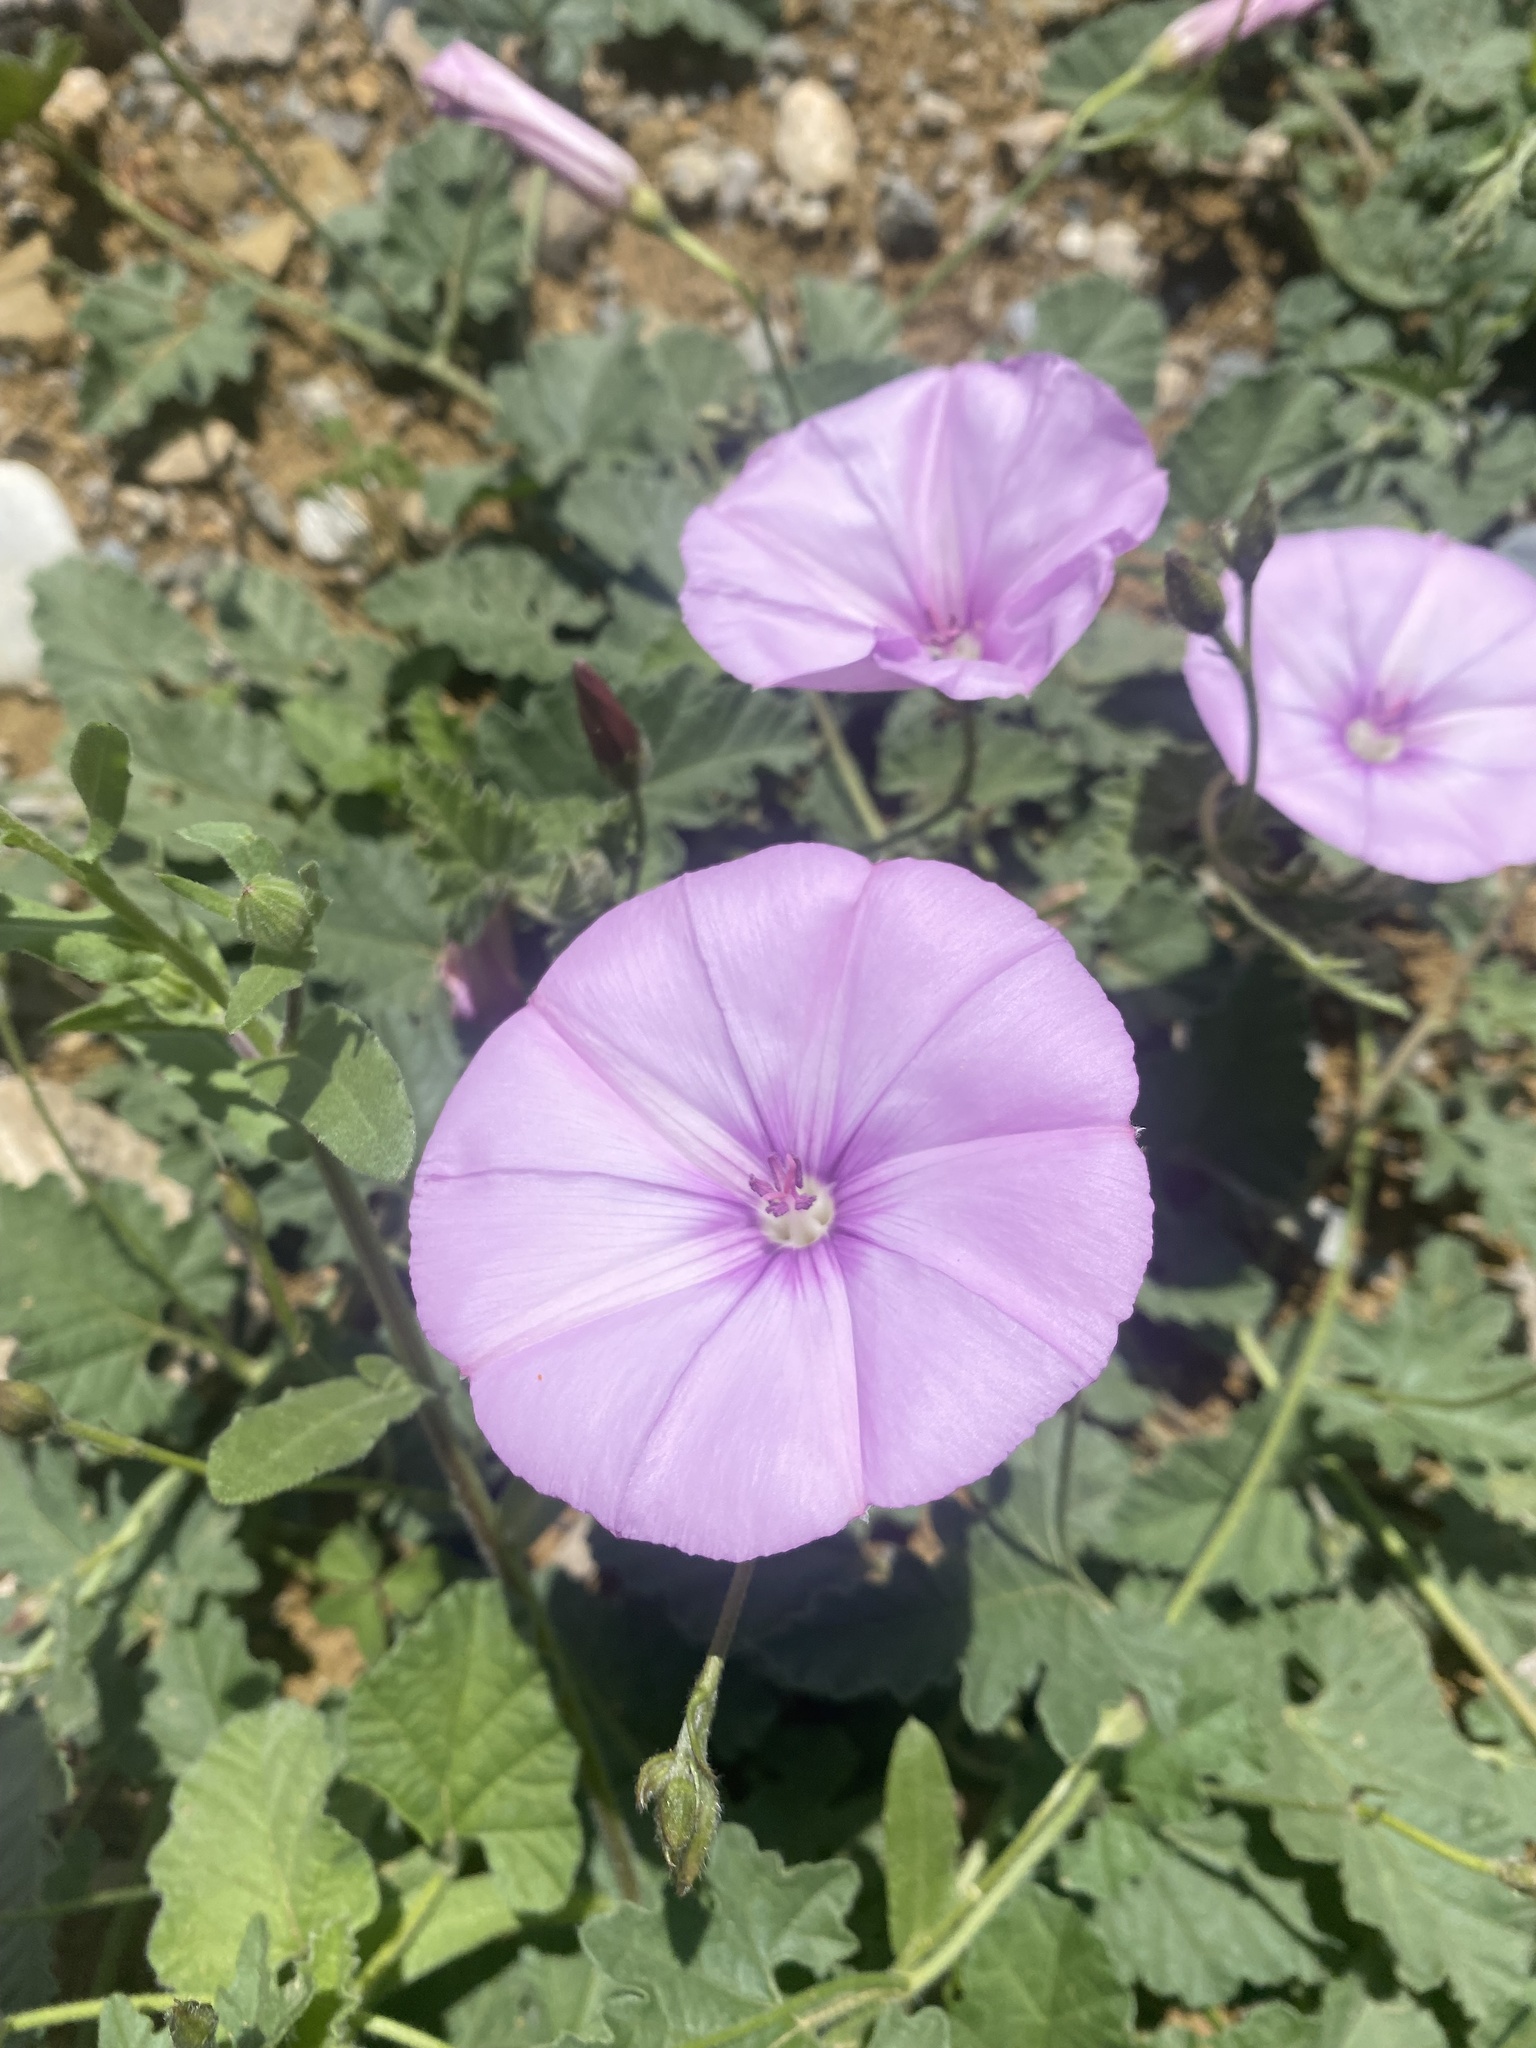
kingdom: Plantae
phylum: Tracheophyta
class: Magnoliopsida
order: Solanales
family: Convolvulaceae
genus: Convolvulus
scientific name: Convolvulus althaeoides
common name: Mallow bindweed
